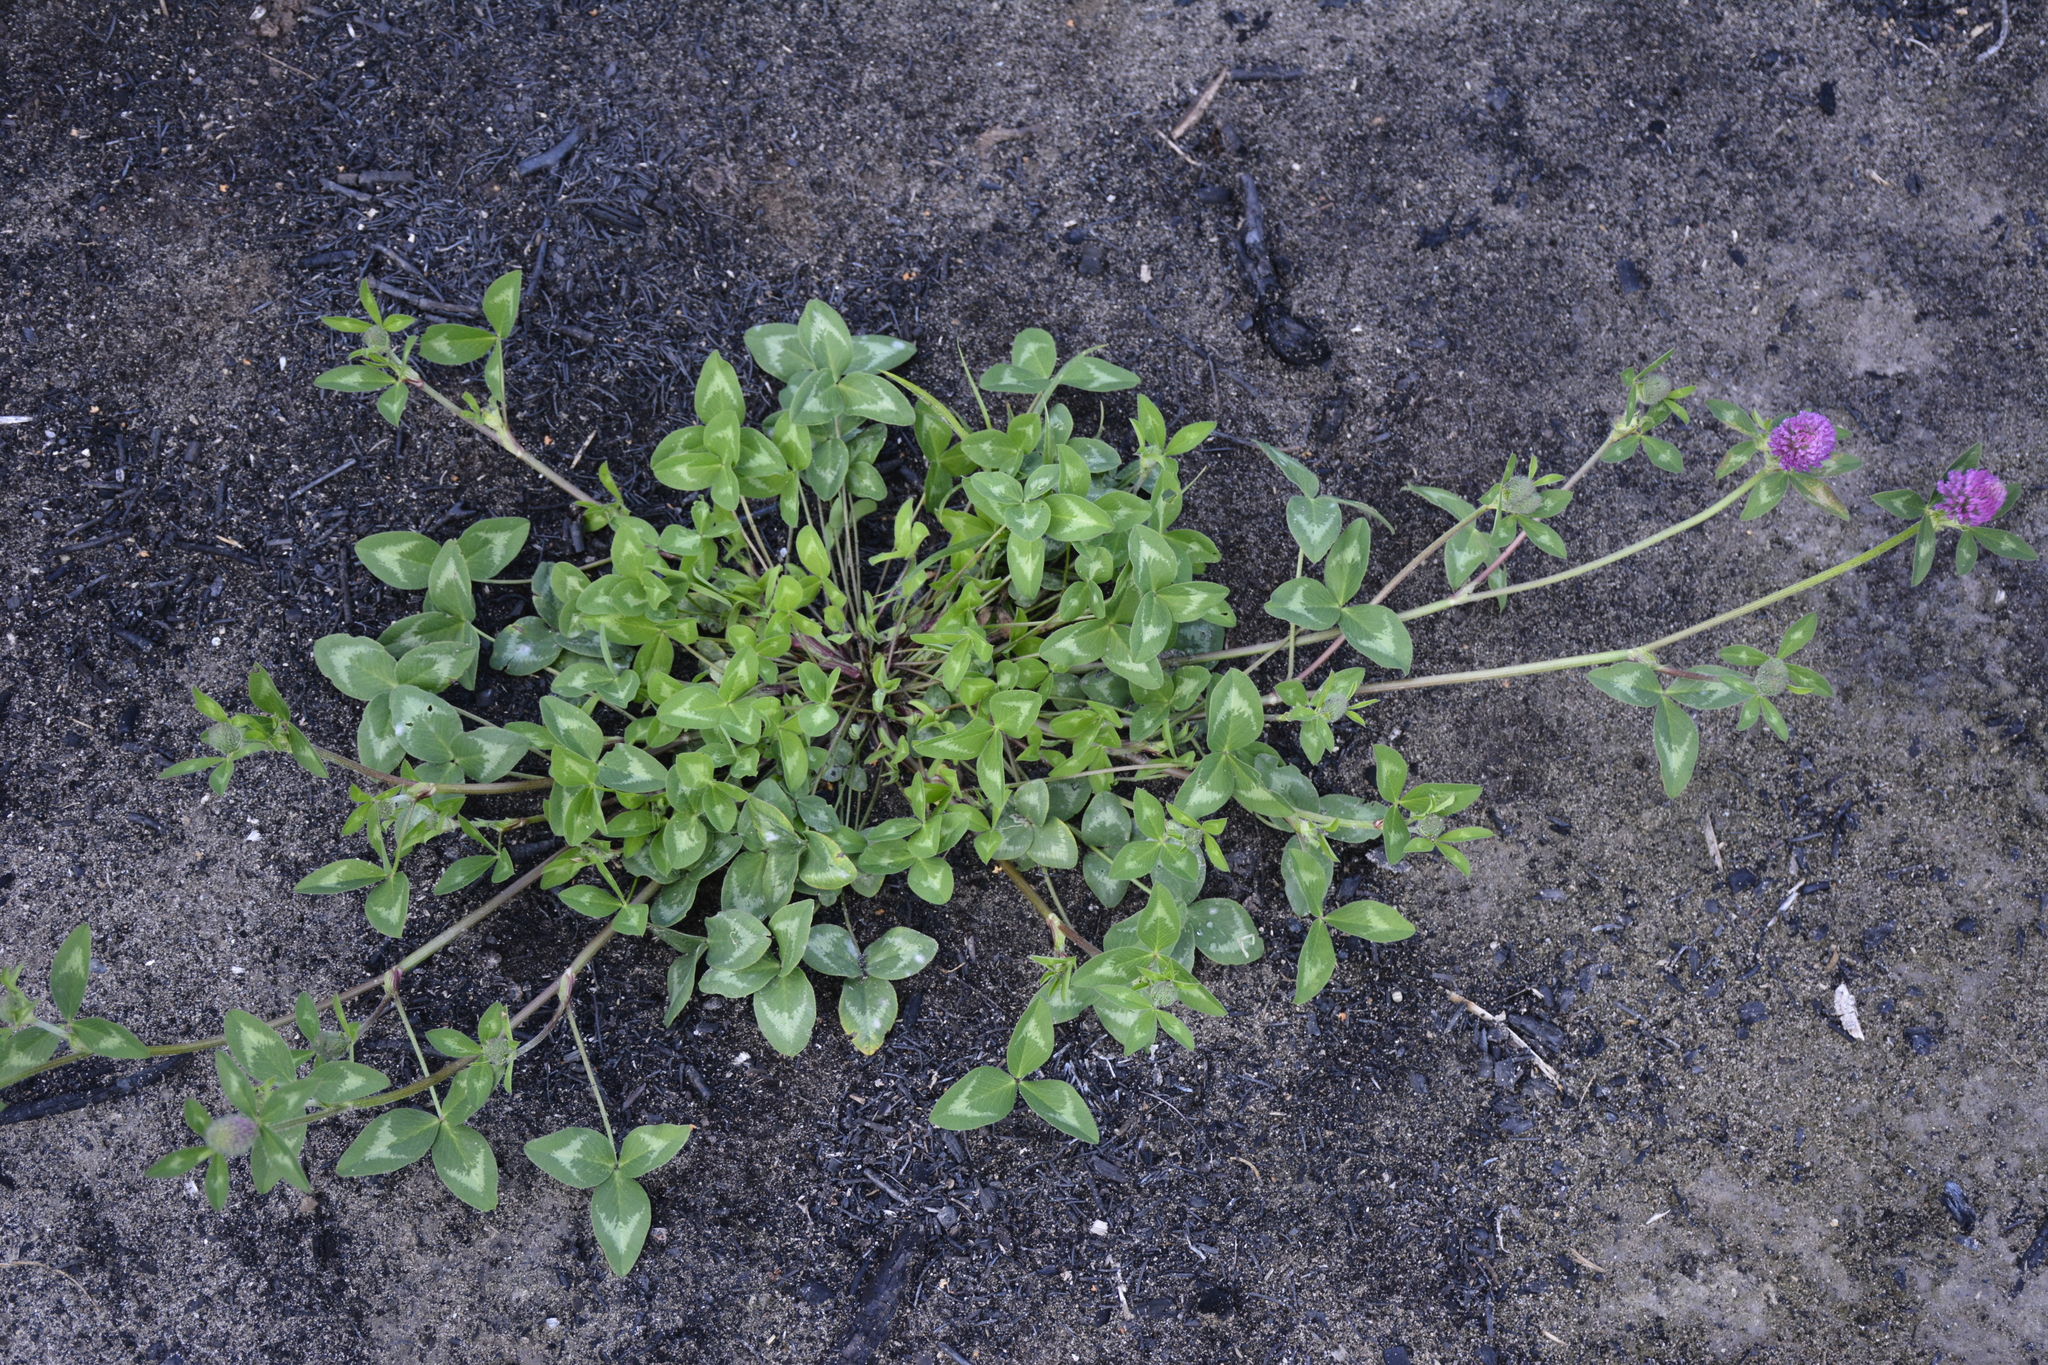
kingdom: Plantae
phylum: Tracheophyta
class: Magnoliopsida
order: Fabales
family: Fabaceae
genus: Trifolium
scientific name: Trifolium pratense
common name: Red clover
